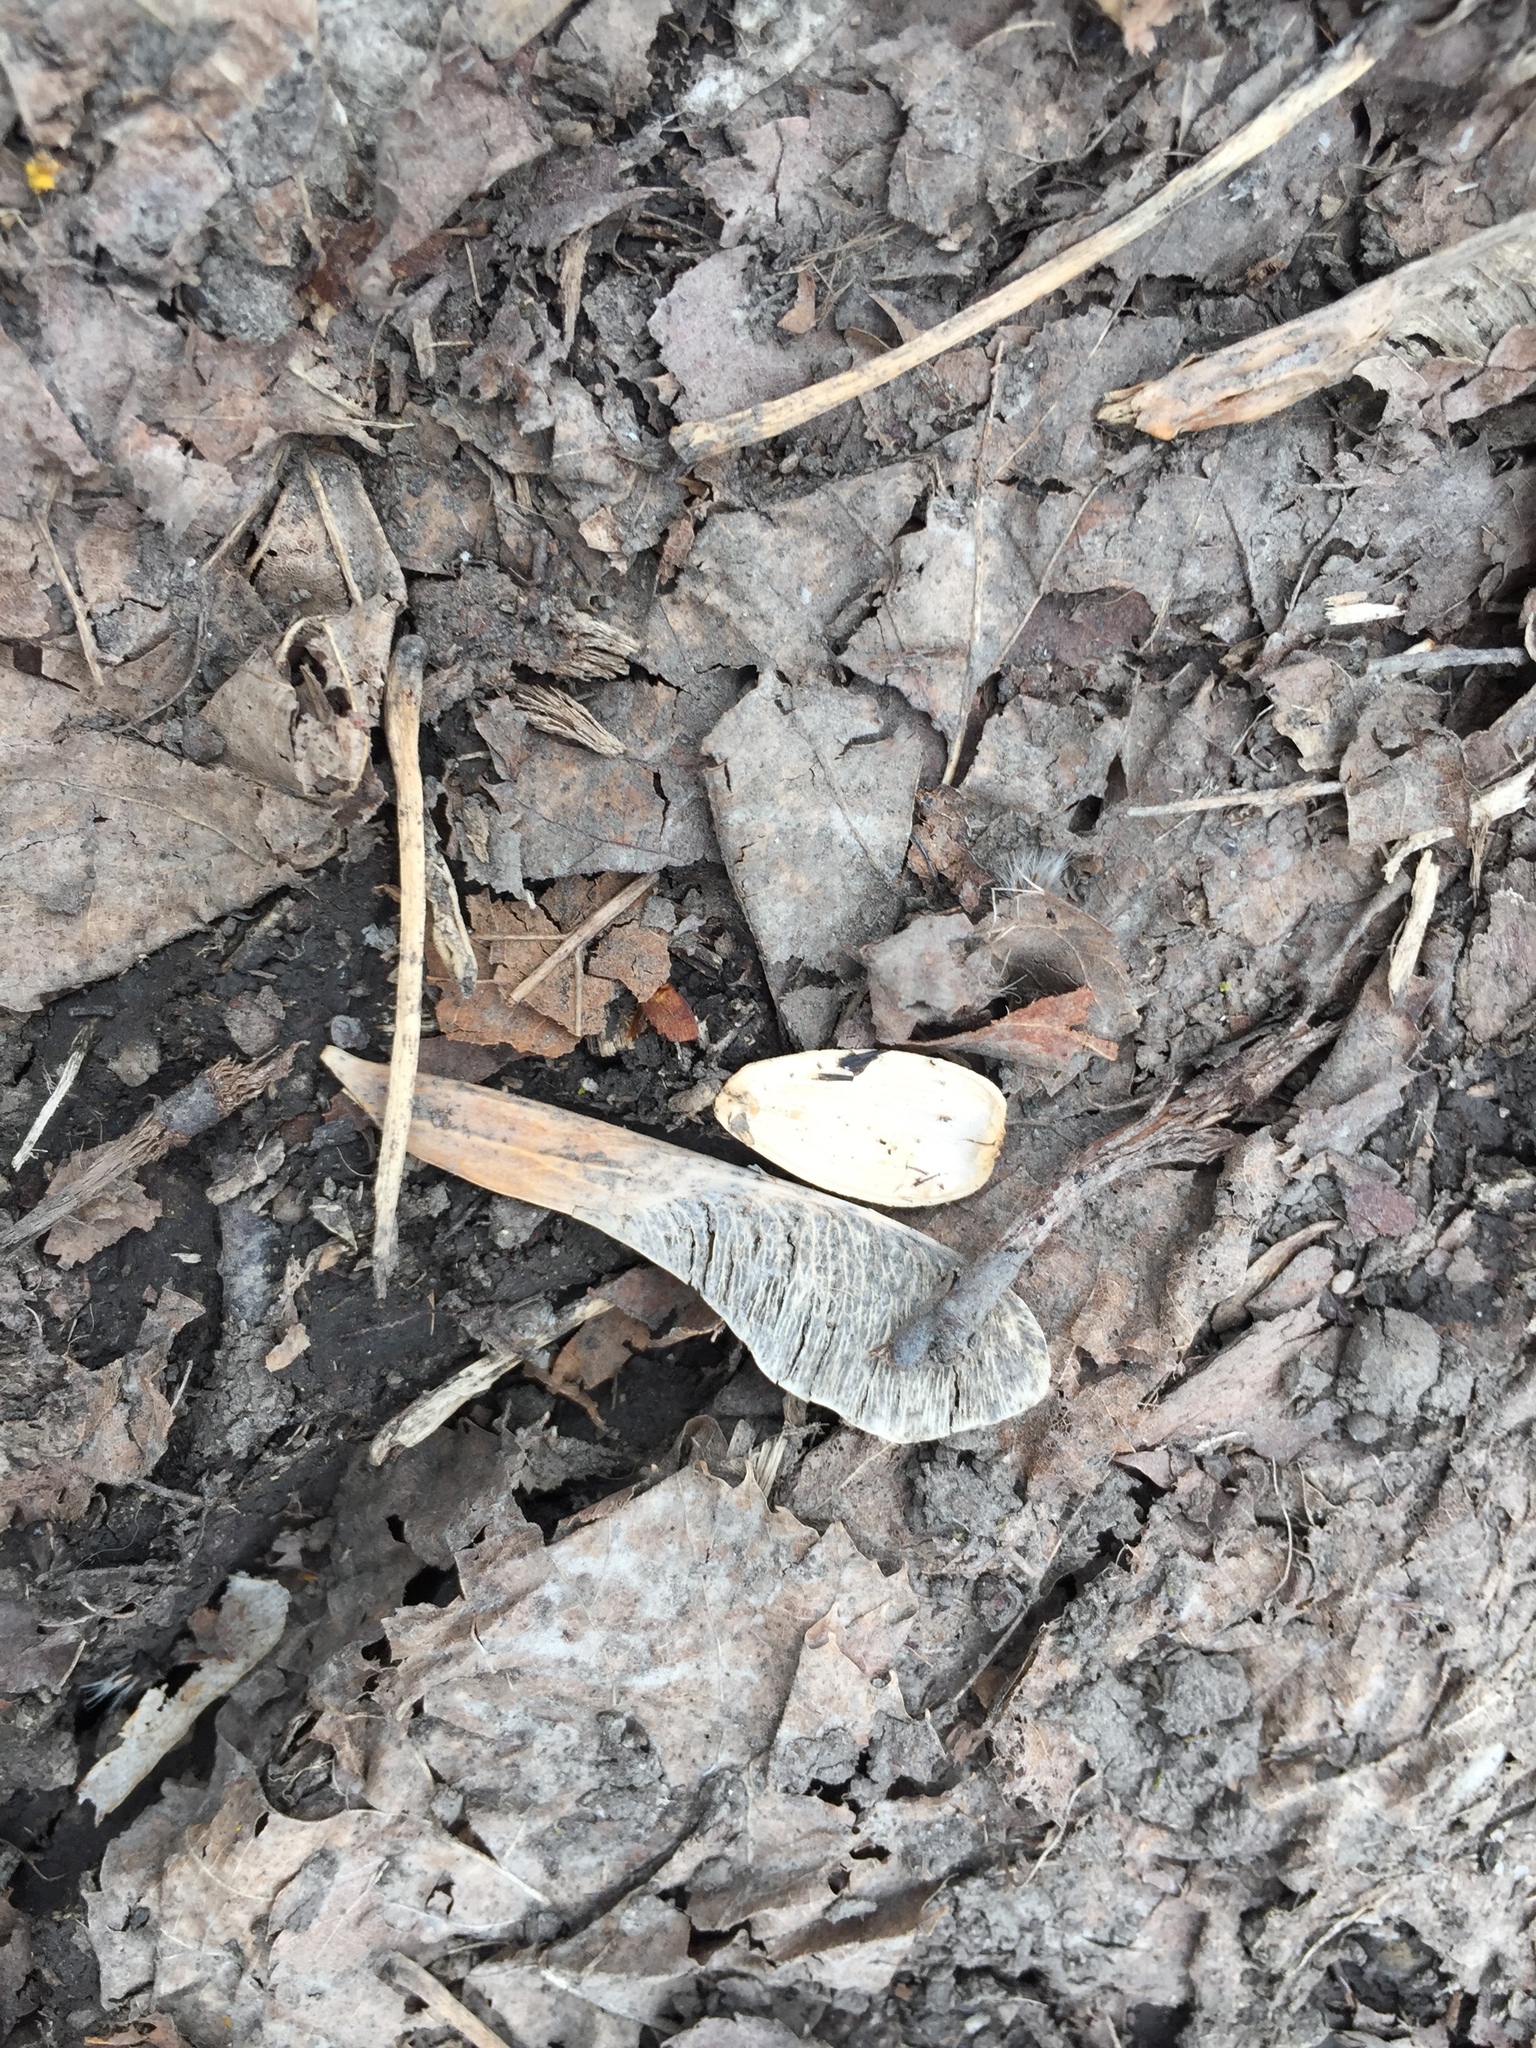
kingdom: Plantae
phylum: Tracheophyta
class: Magnoliopsida
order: Sapindales
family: Sapindaceae
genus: Acer
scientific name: Acer negundo
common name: Ashleaf maple
